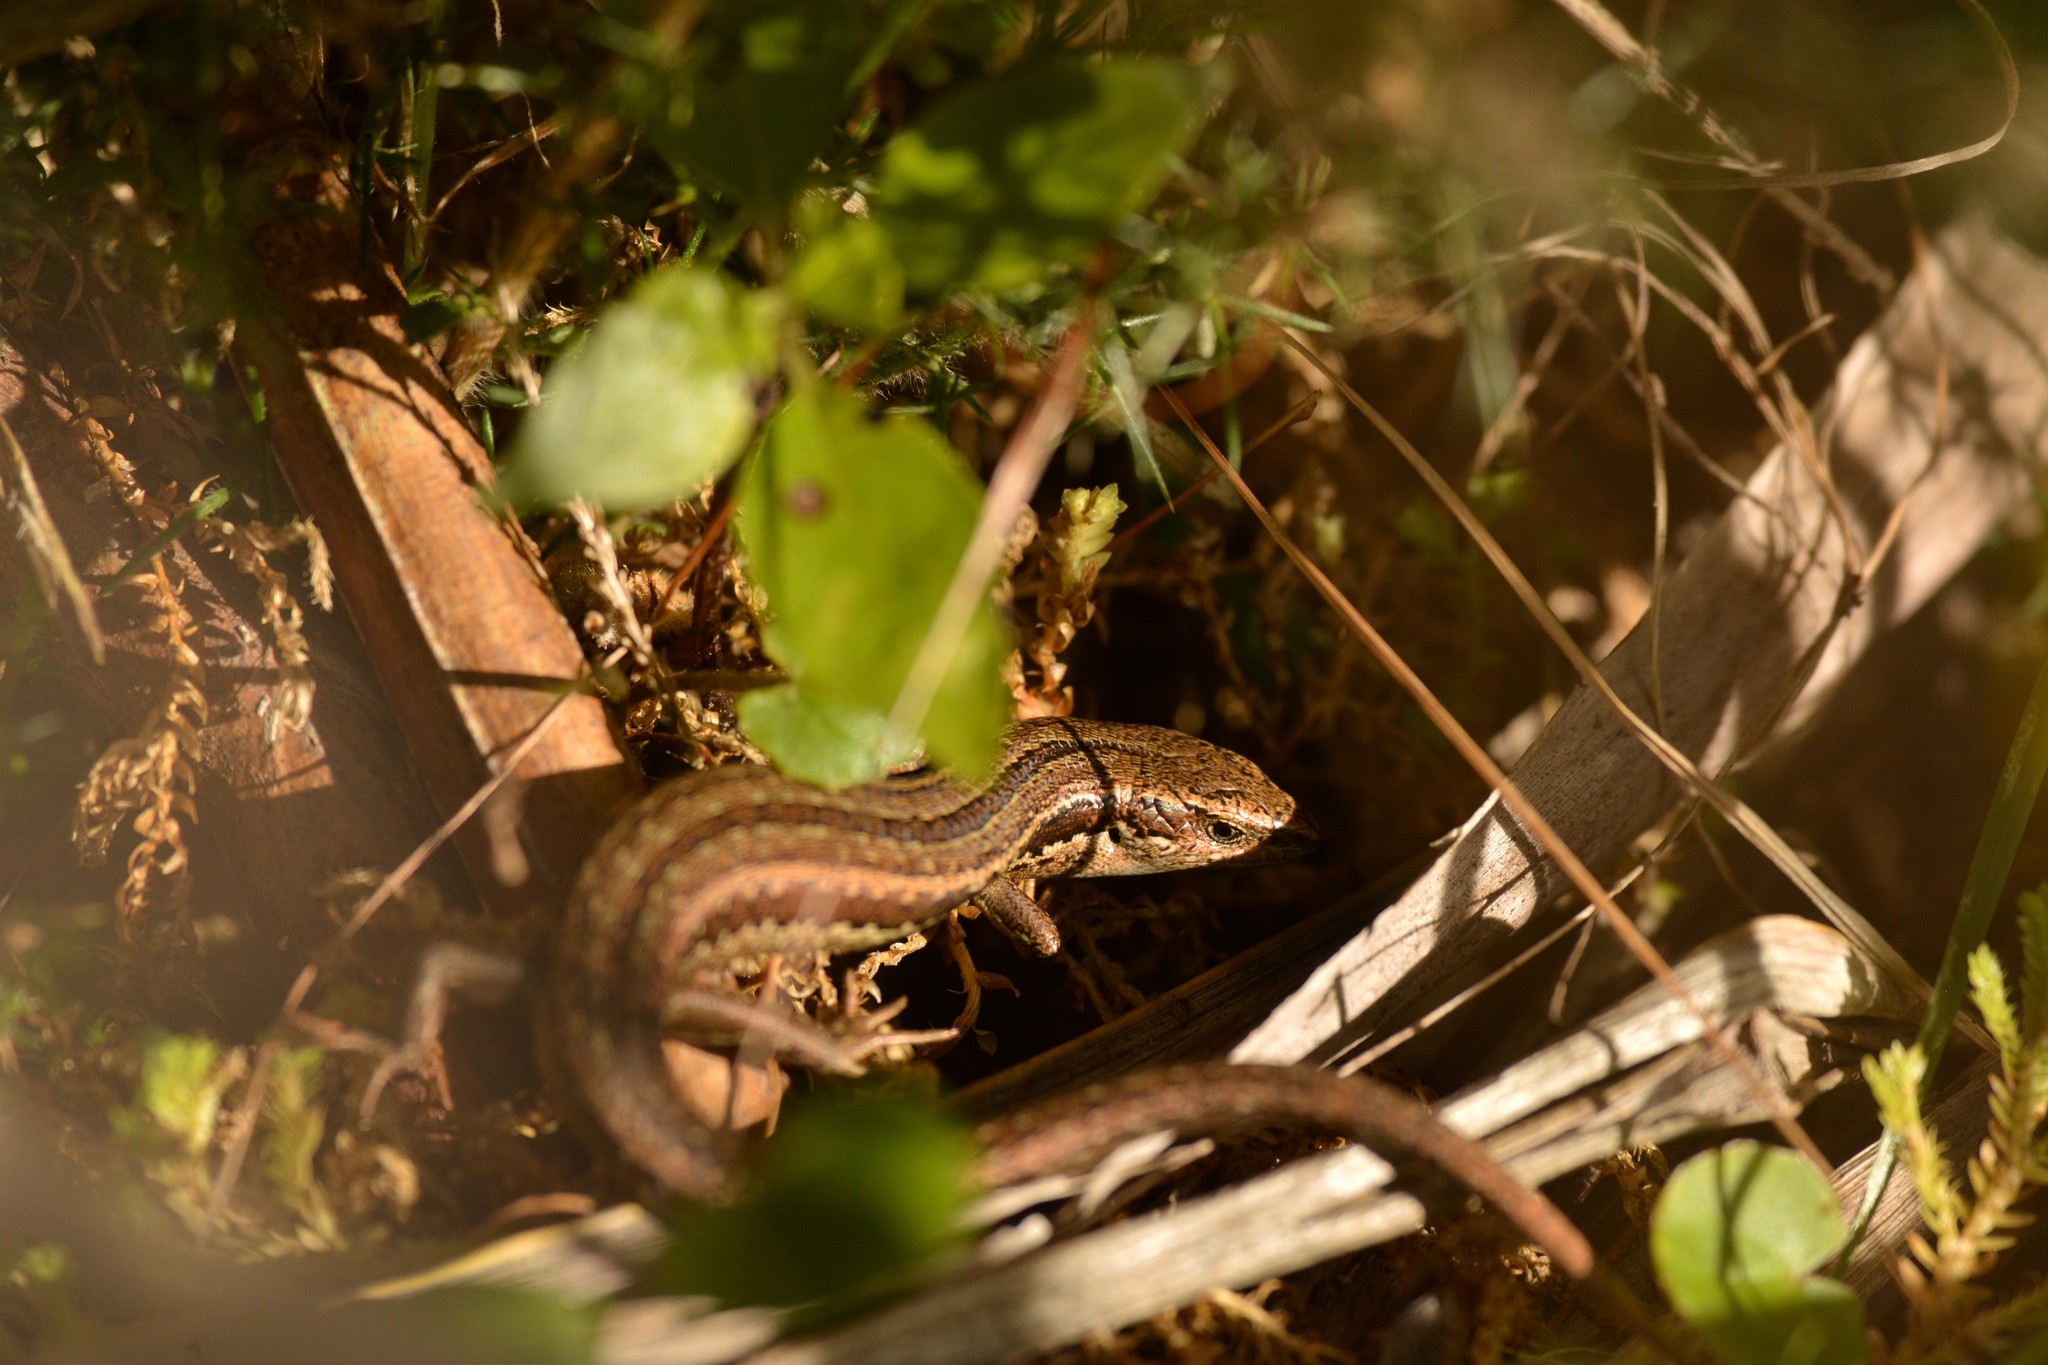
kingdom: Animalia
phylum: Chordata
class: Squamata
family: Scincidae
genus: Oligosoma
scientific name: Oligosoma polychroma
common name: Common new zealand skink
